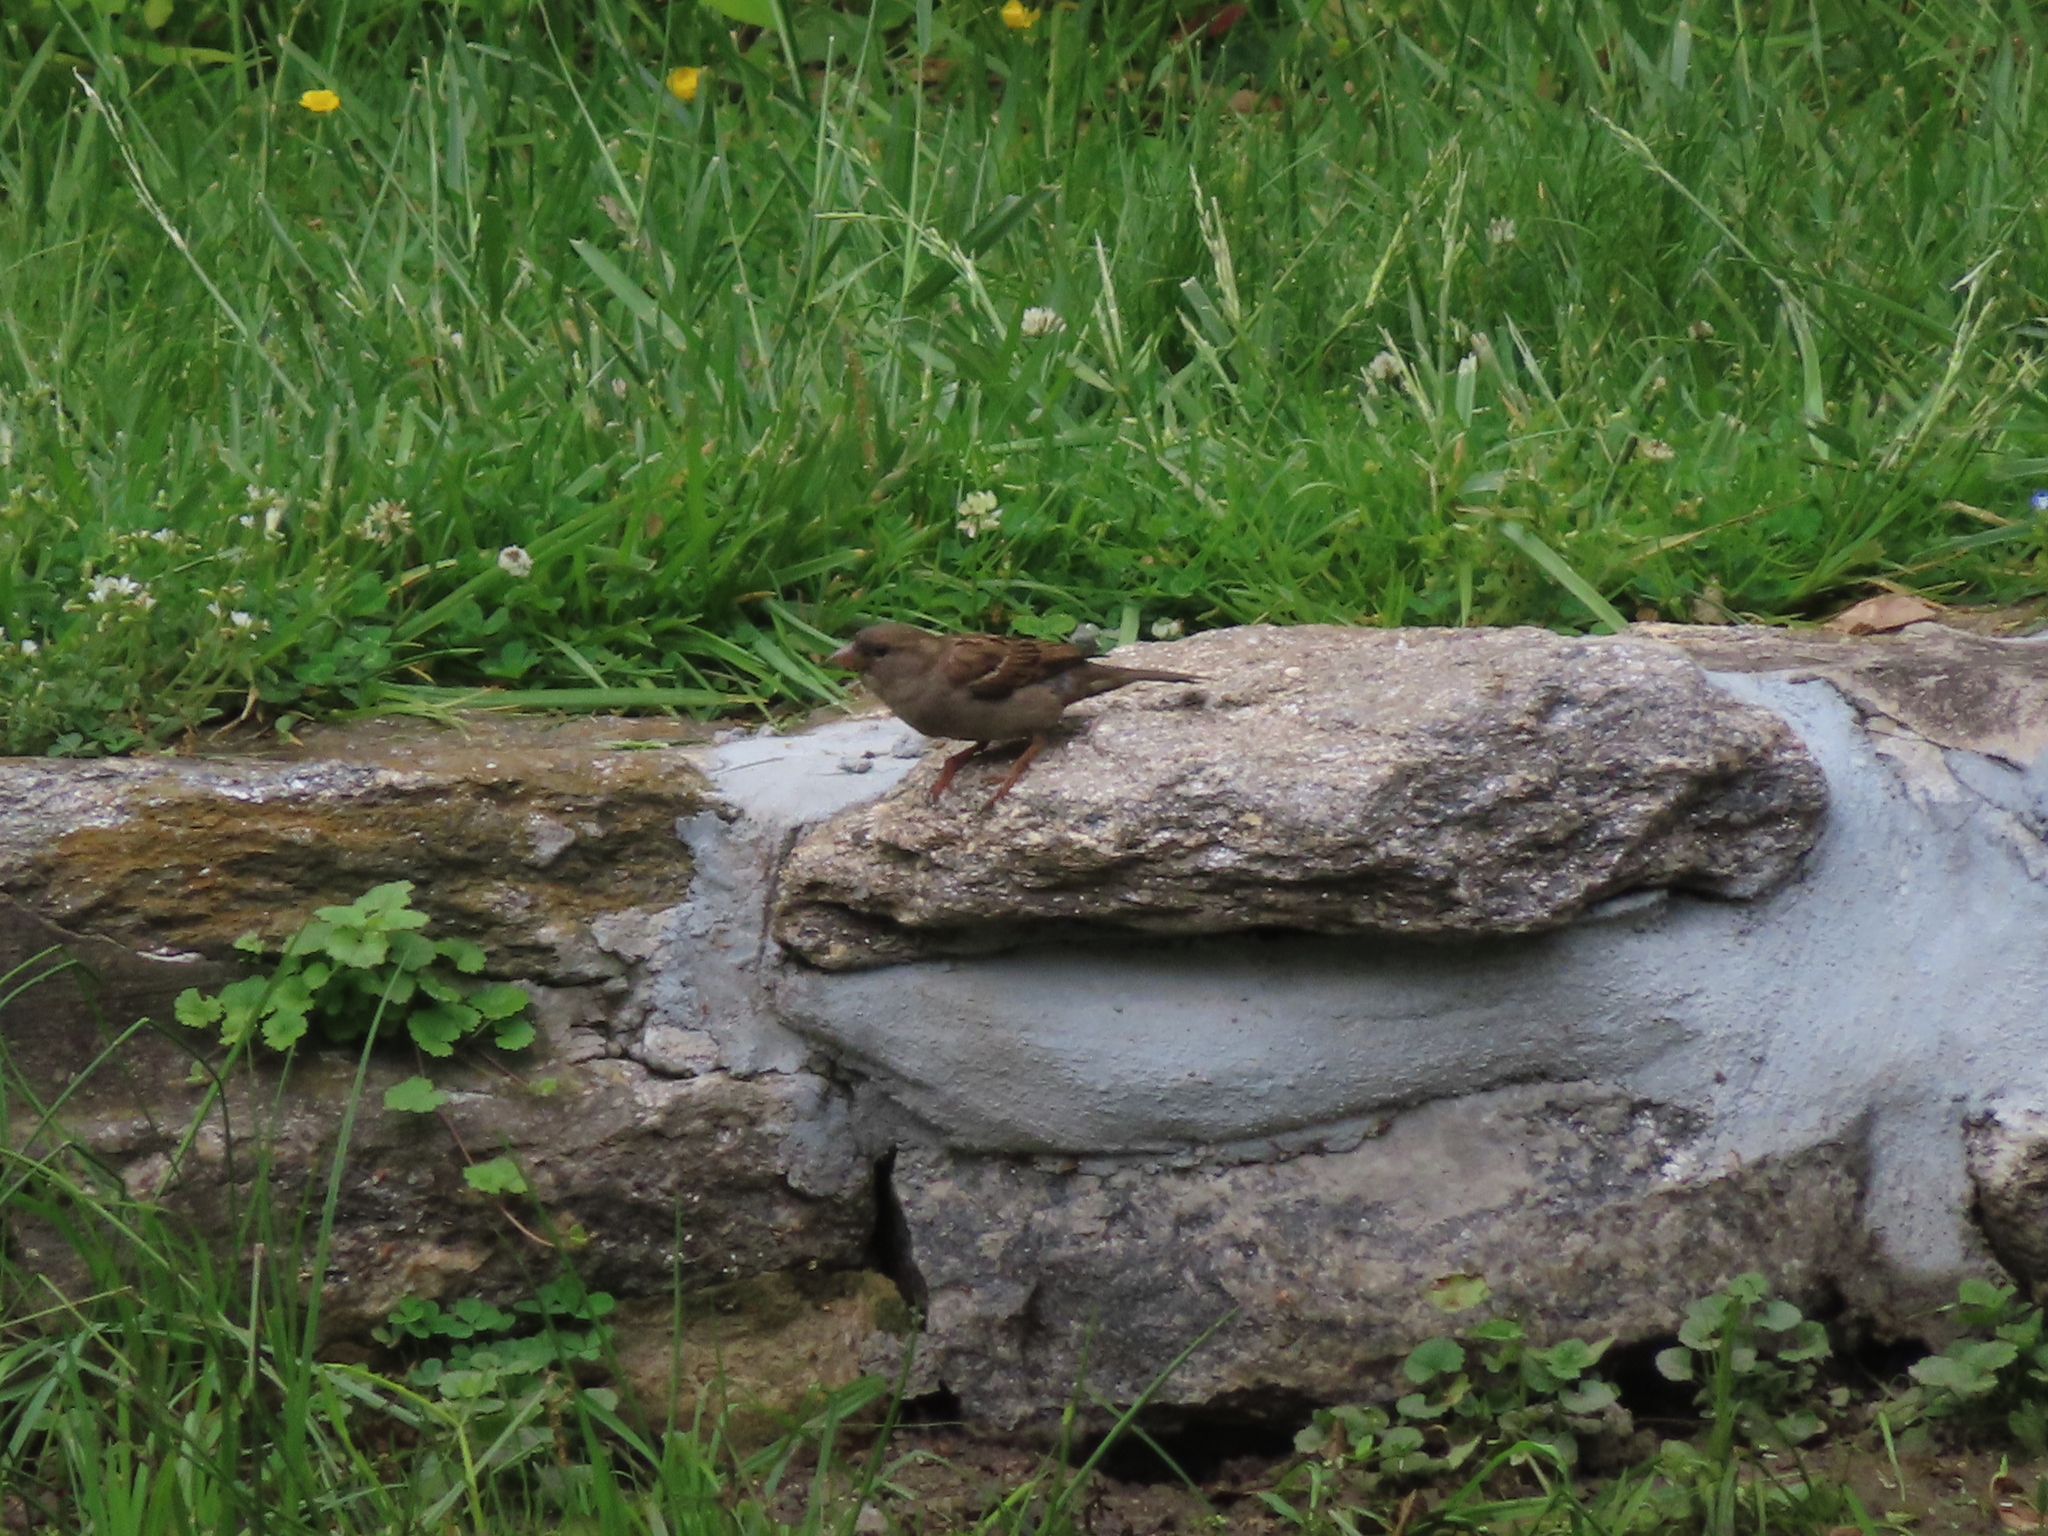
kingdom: Animalia
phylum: Chordata
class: Aves
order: Passeriformes
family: Passeridae
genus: Passer
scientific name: Passer domesticus
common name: House sparrow
